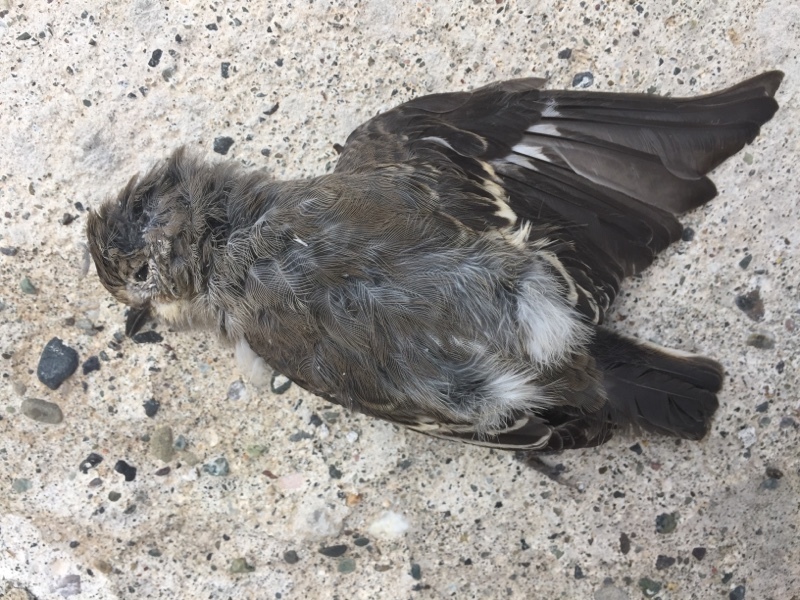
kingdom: Animalia
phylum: Chordata
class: Aves
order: Passeriformes
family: Muscicapidae
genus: Ficedula
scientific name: Ficedula semitorquata
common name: Semicollared flycatcher
